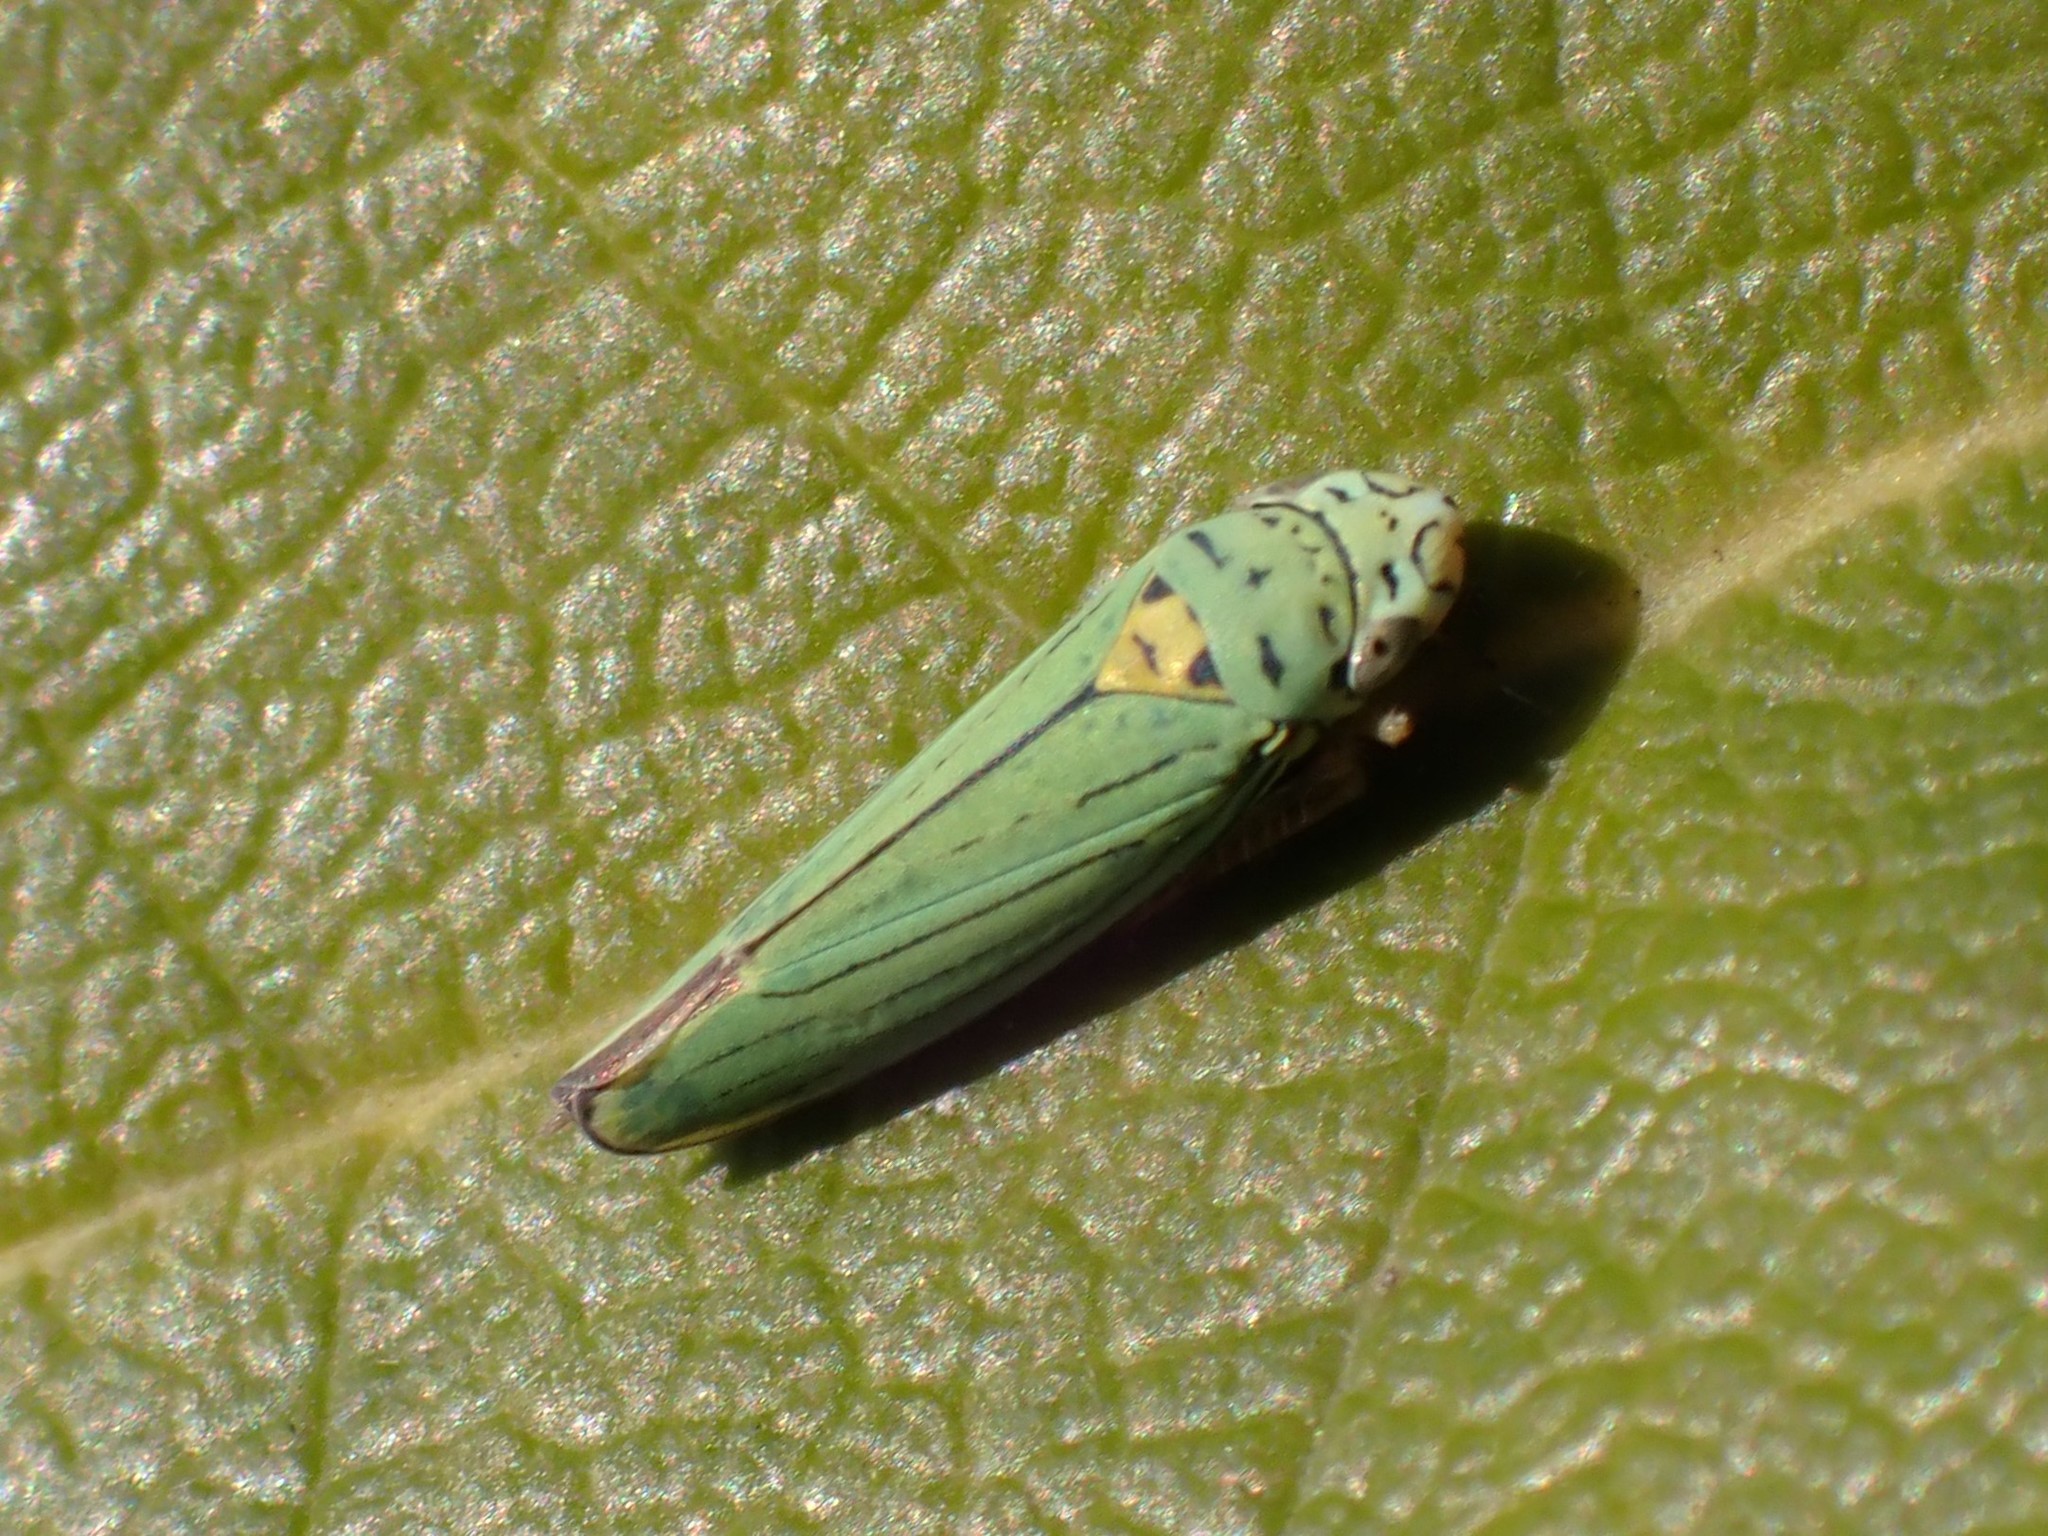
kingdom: Animalia
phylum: Arthropoda
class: Insecta
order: Hemiptera
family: Cicadellidae
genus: Graphocephala
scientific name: Graphocephala atropunctata
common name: Blue-green sharpshooter
